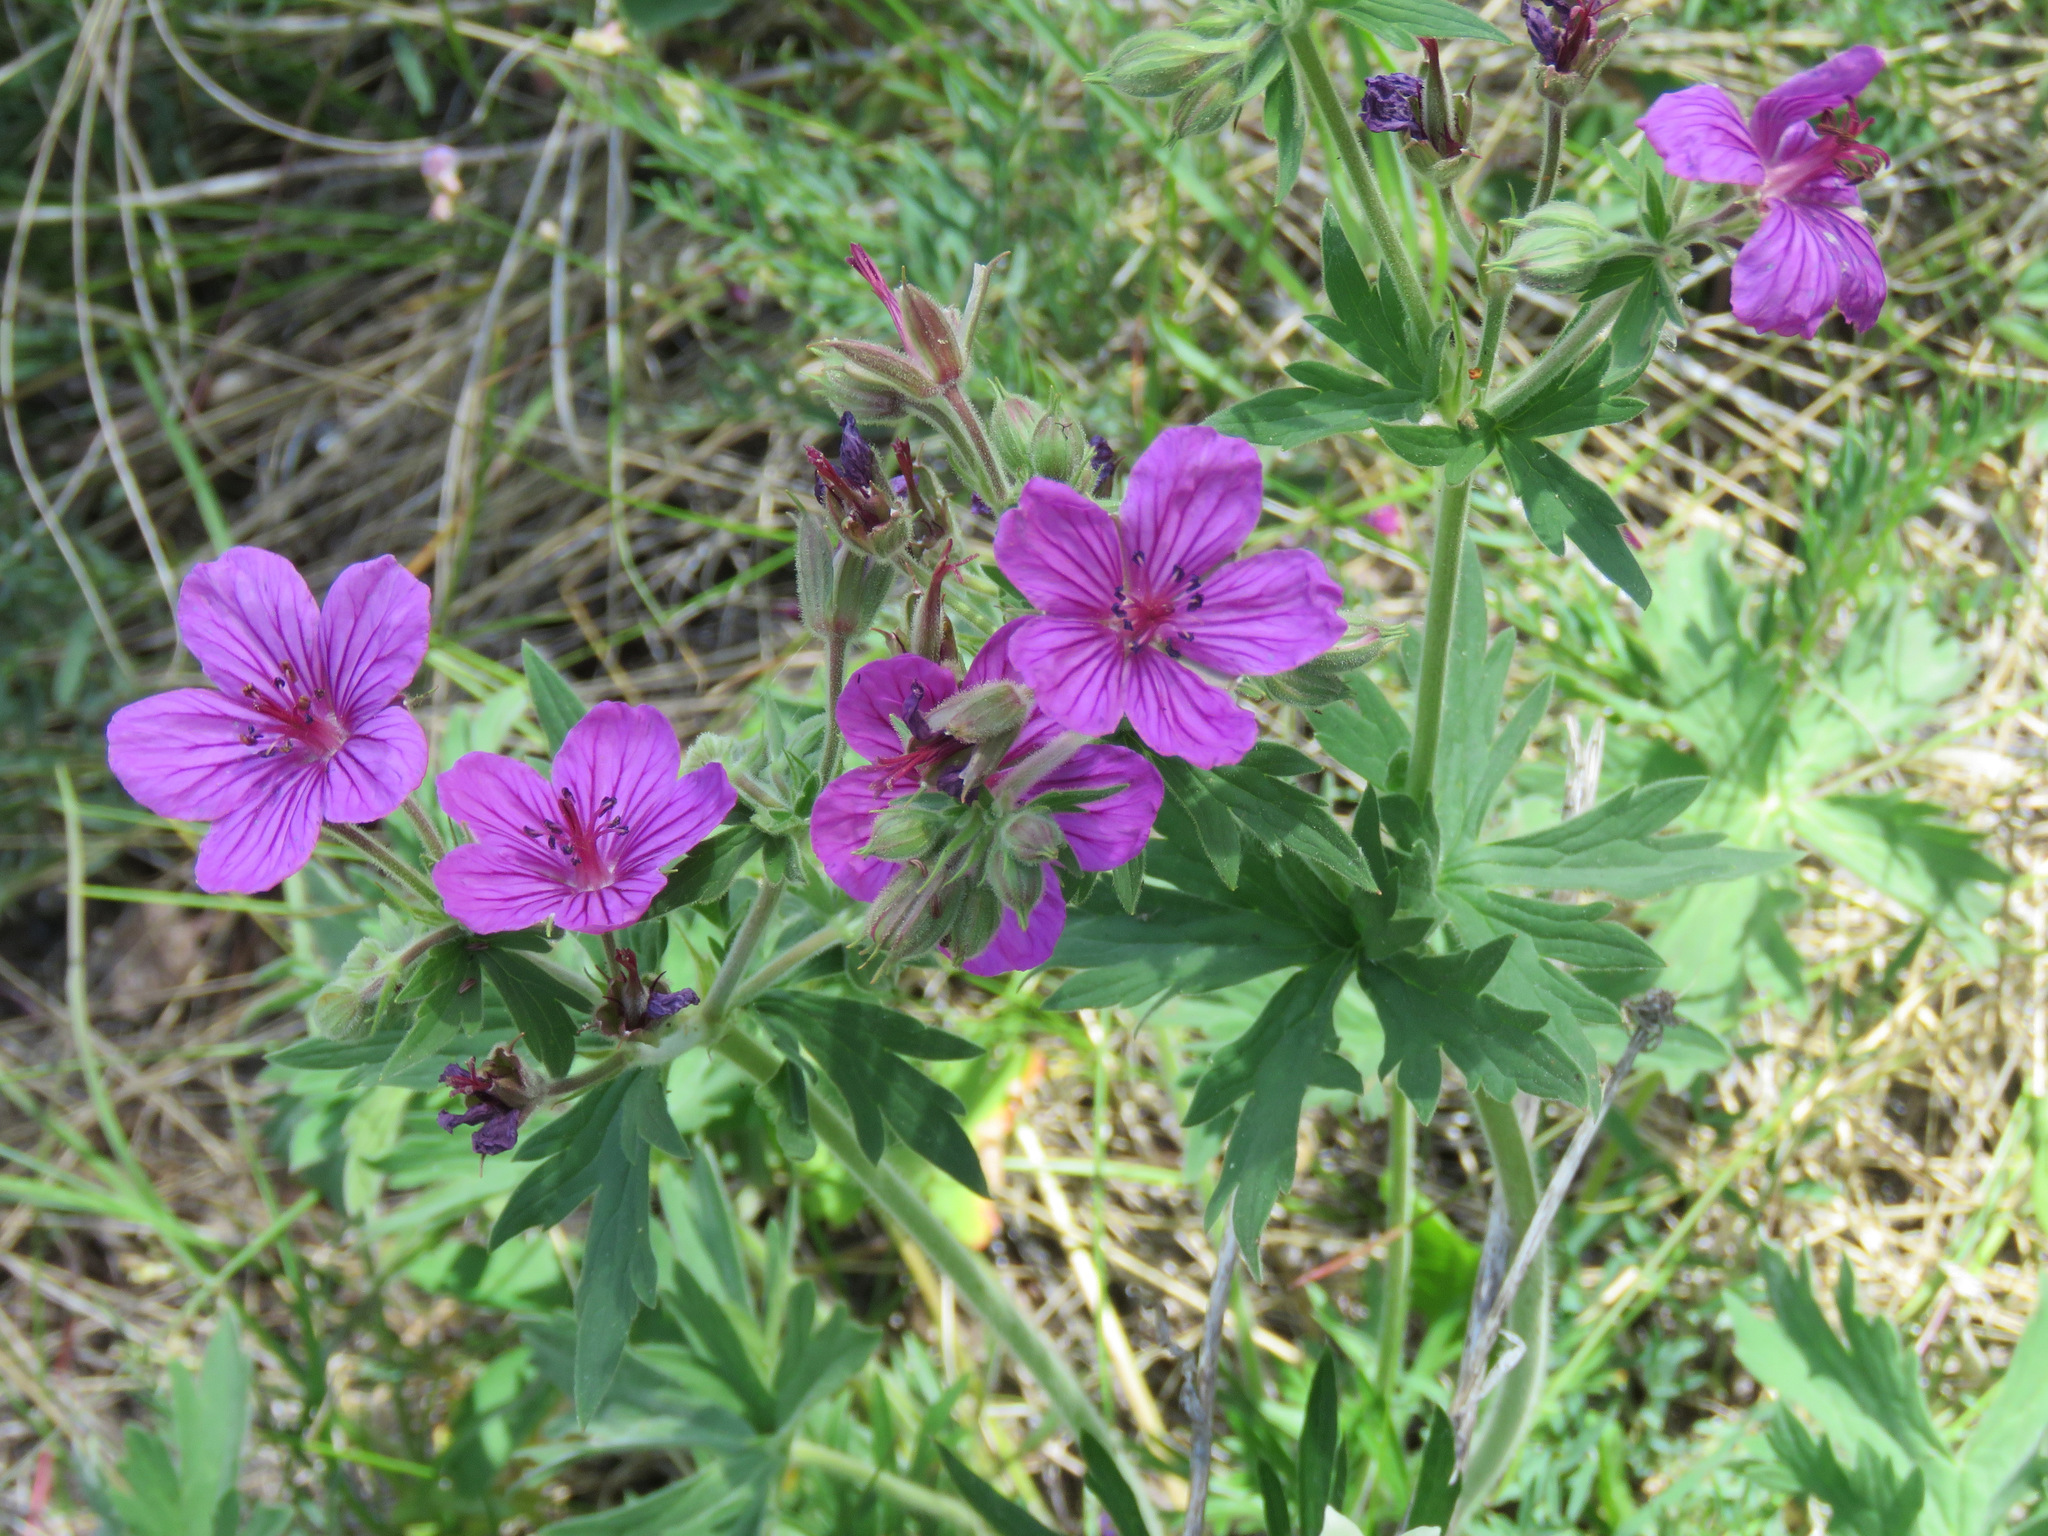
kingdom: Plantae
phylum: Tracheophyta
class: Magnoliopsida
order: Geraniales
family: Geraniaceae
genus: Geranium
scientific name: Geranium viscosissimum
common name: Purple geranium
